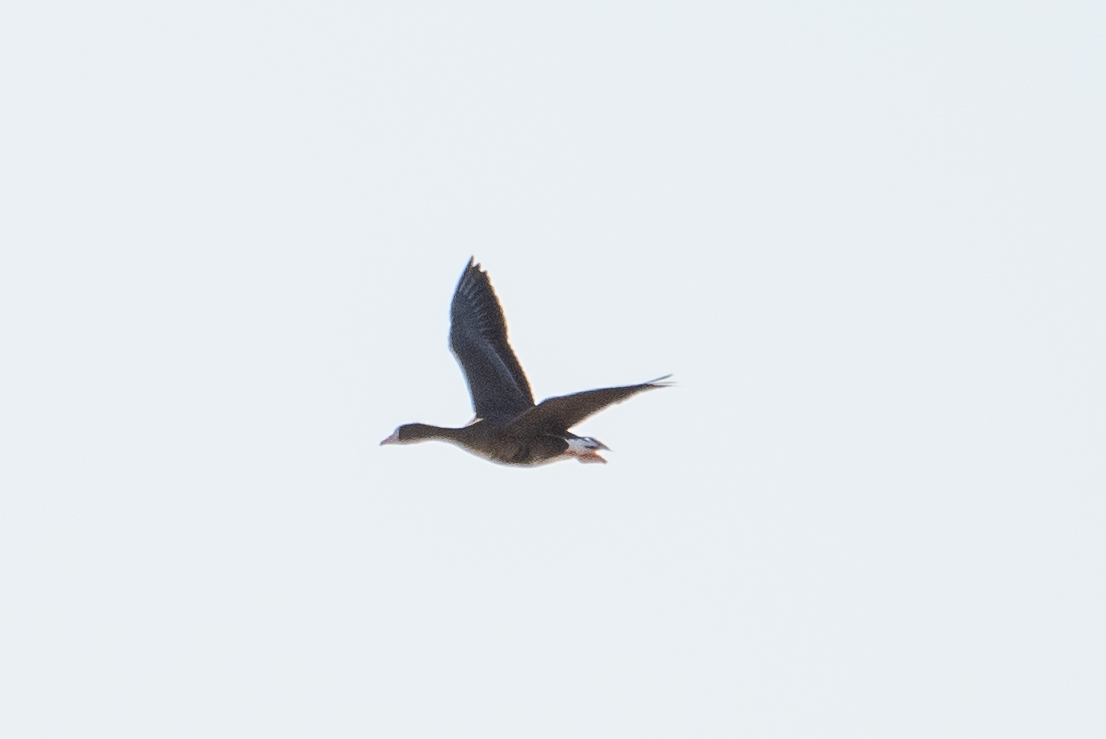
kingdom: Animalia
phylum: Chordata
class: Aves
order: Anseriformes
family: Anatidae
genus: Anser
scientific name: Anser albifrons
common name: Greater white-fronted goose
